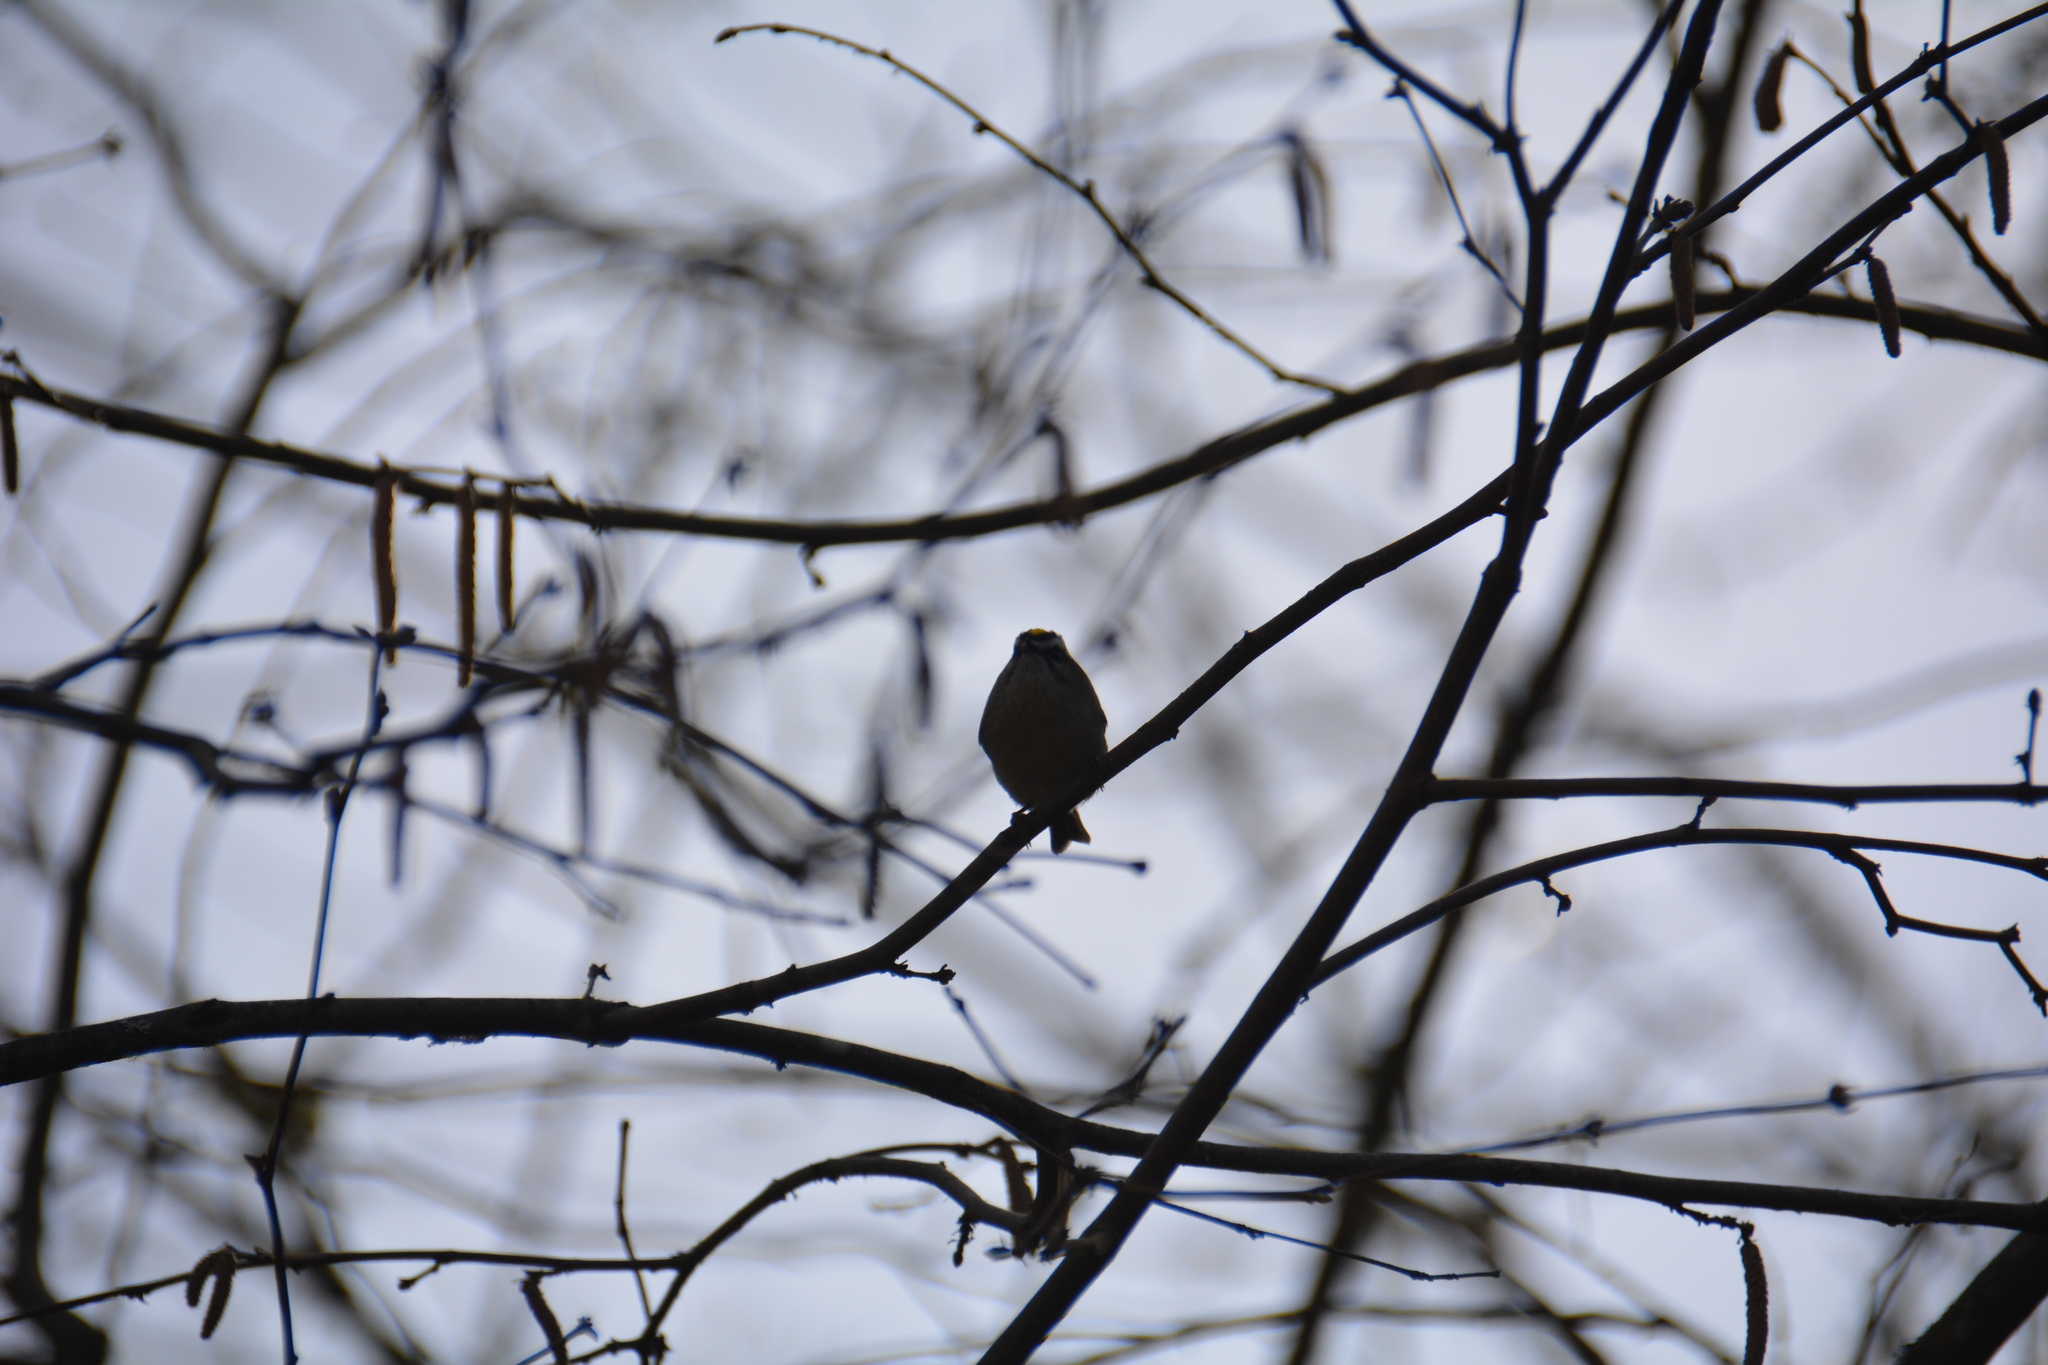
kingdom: Animalia
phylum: Chordata
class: Aves
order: Passeriformes
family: Regulidae
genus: Regulus
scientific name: Regulus satrapa
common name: Golden-crowned kinglet
